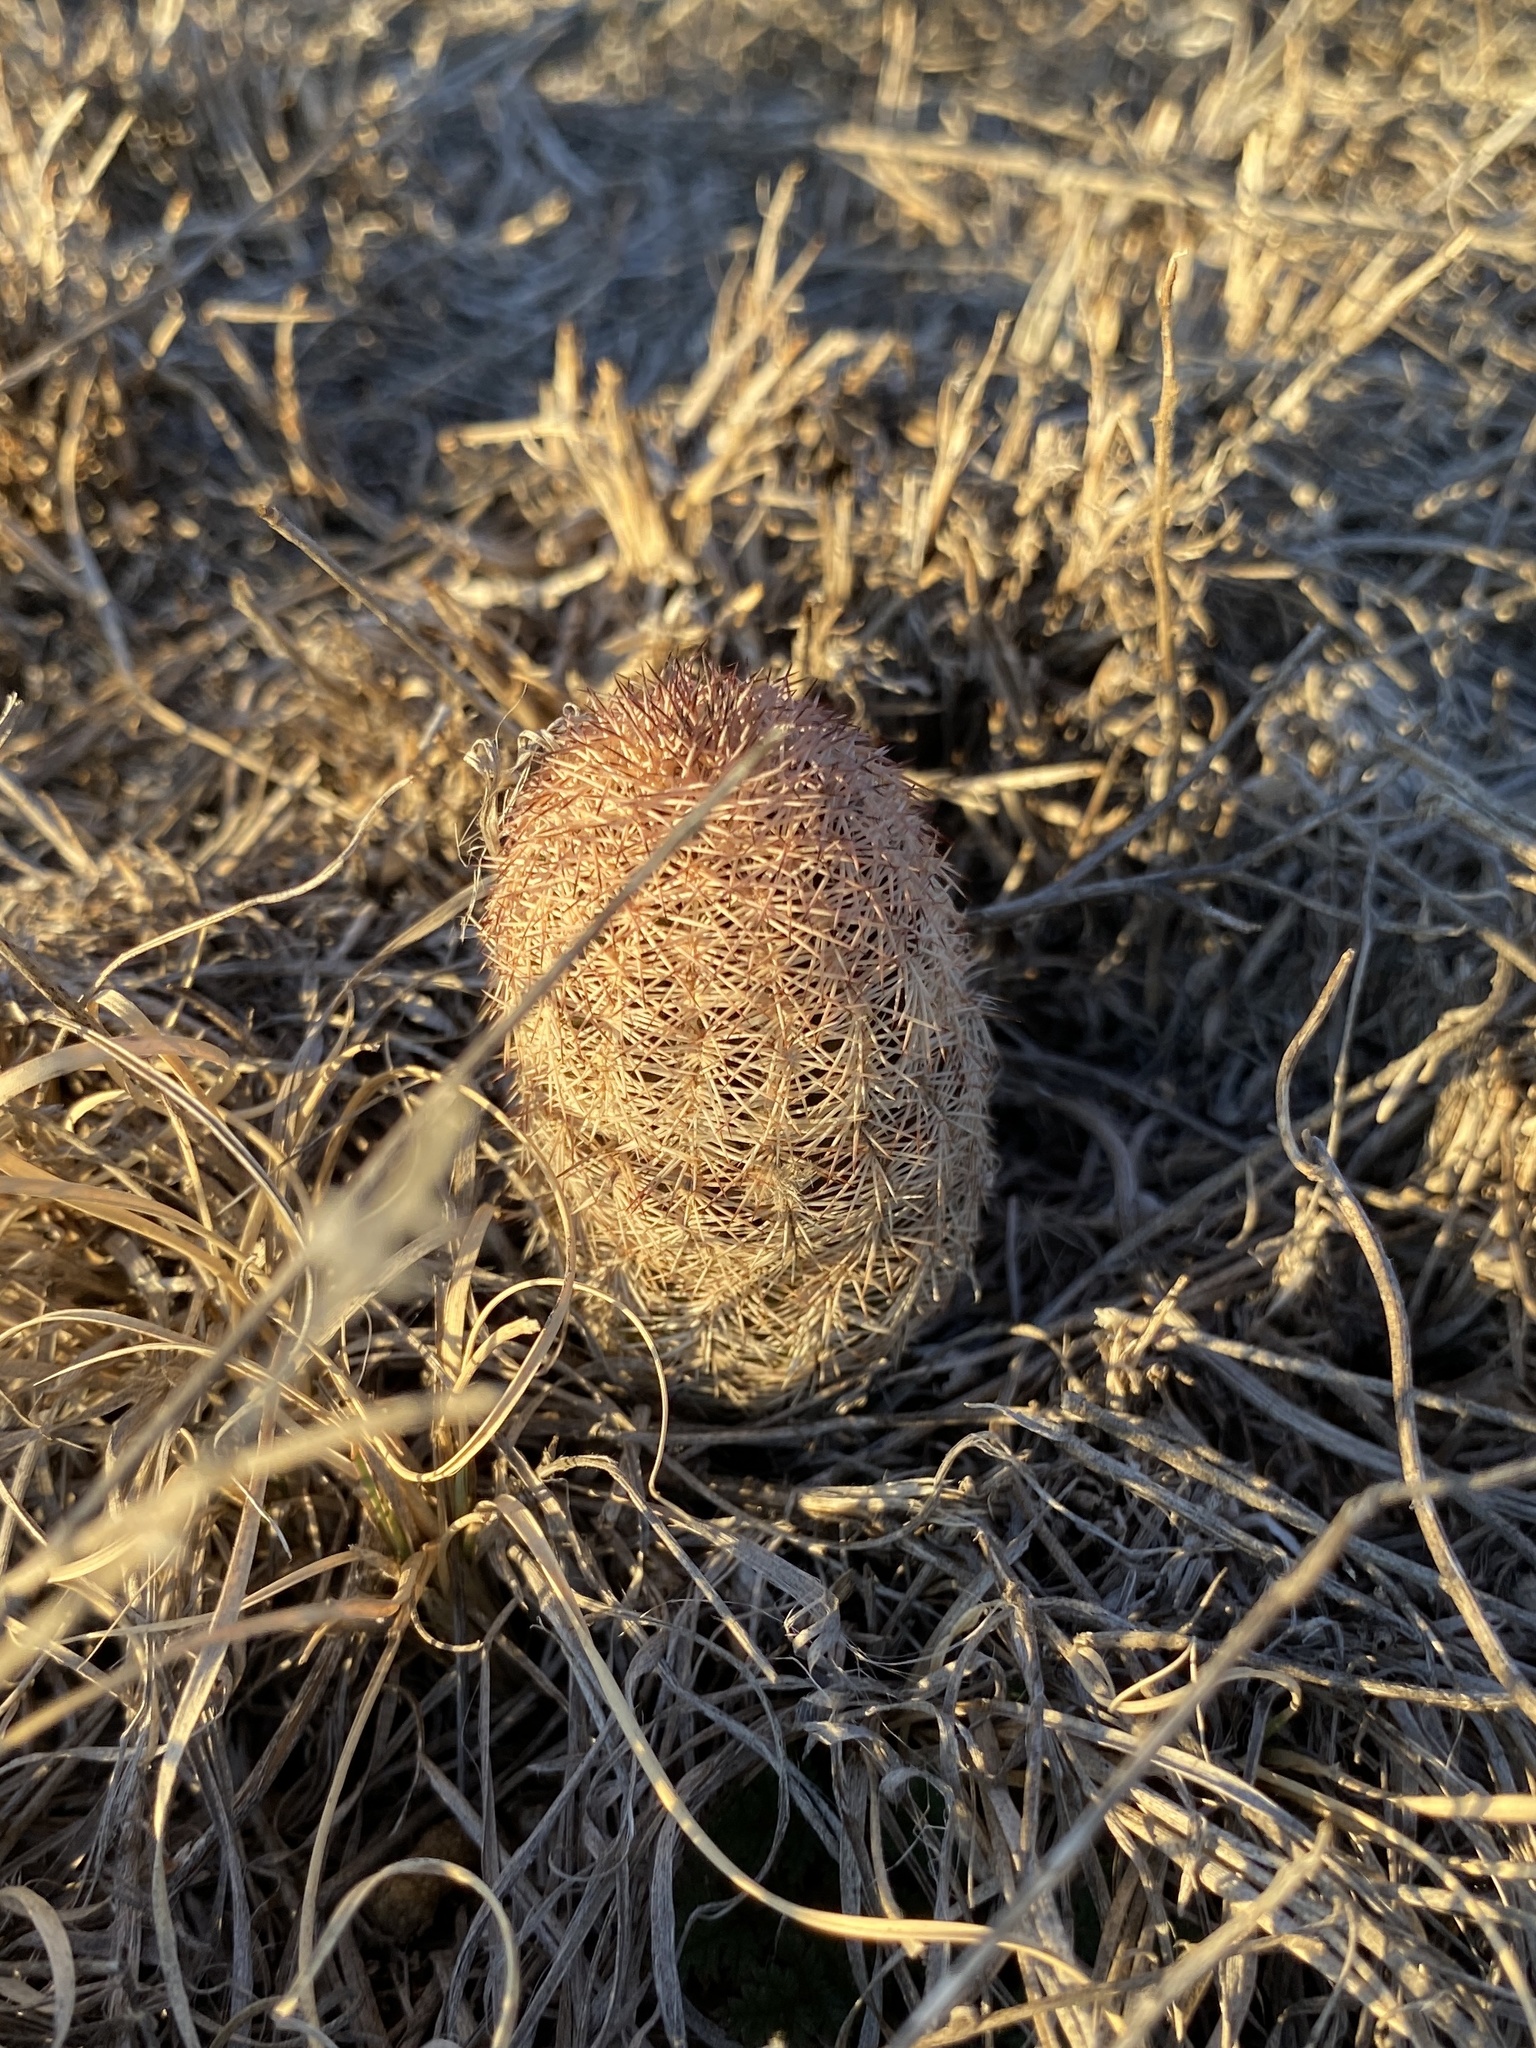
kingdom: Plantae
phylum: Tracheophyta
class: Magnoliopsida
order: Caryophyllales
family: Cactaceae
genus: Echinocereus
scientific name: Echinocereus reichenbachii
